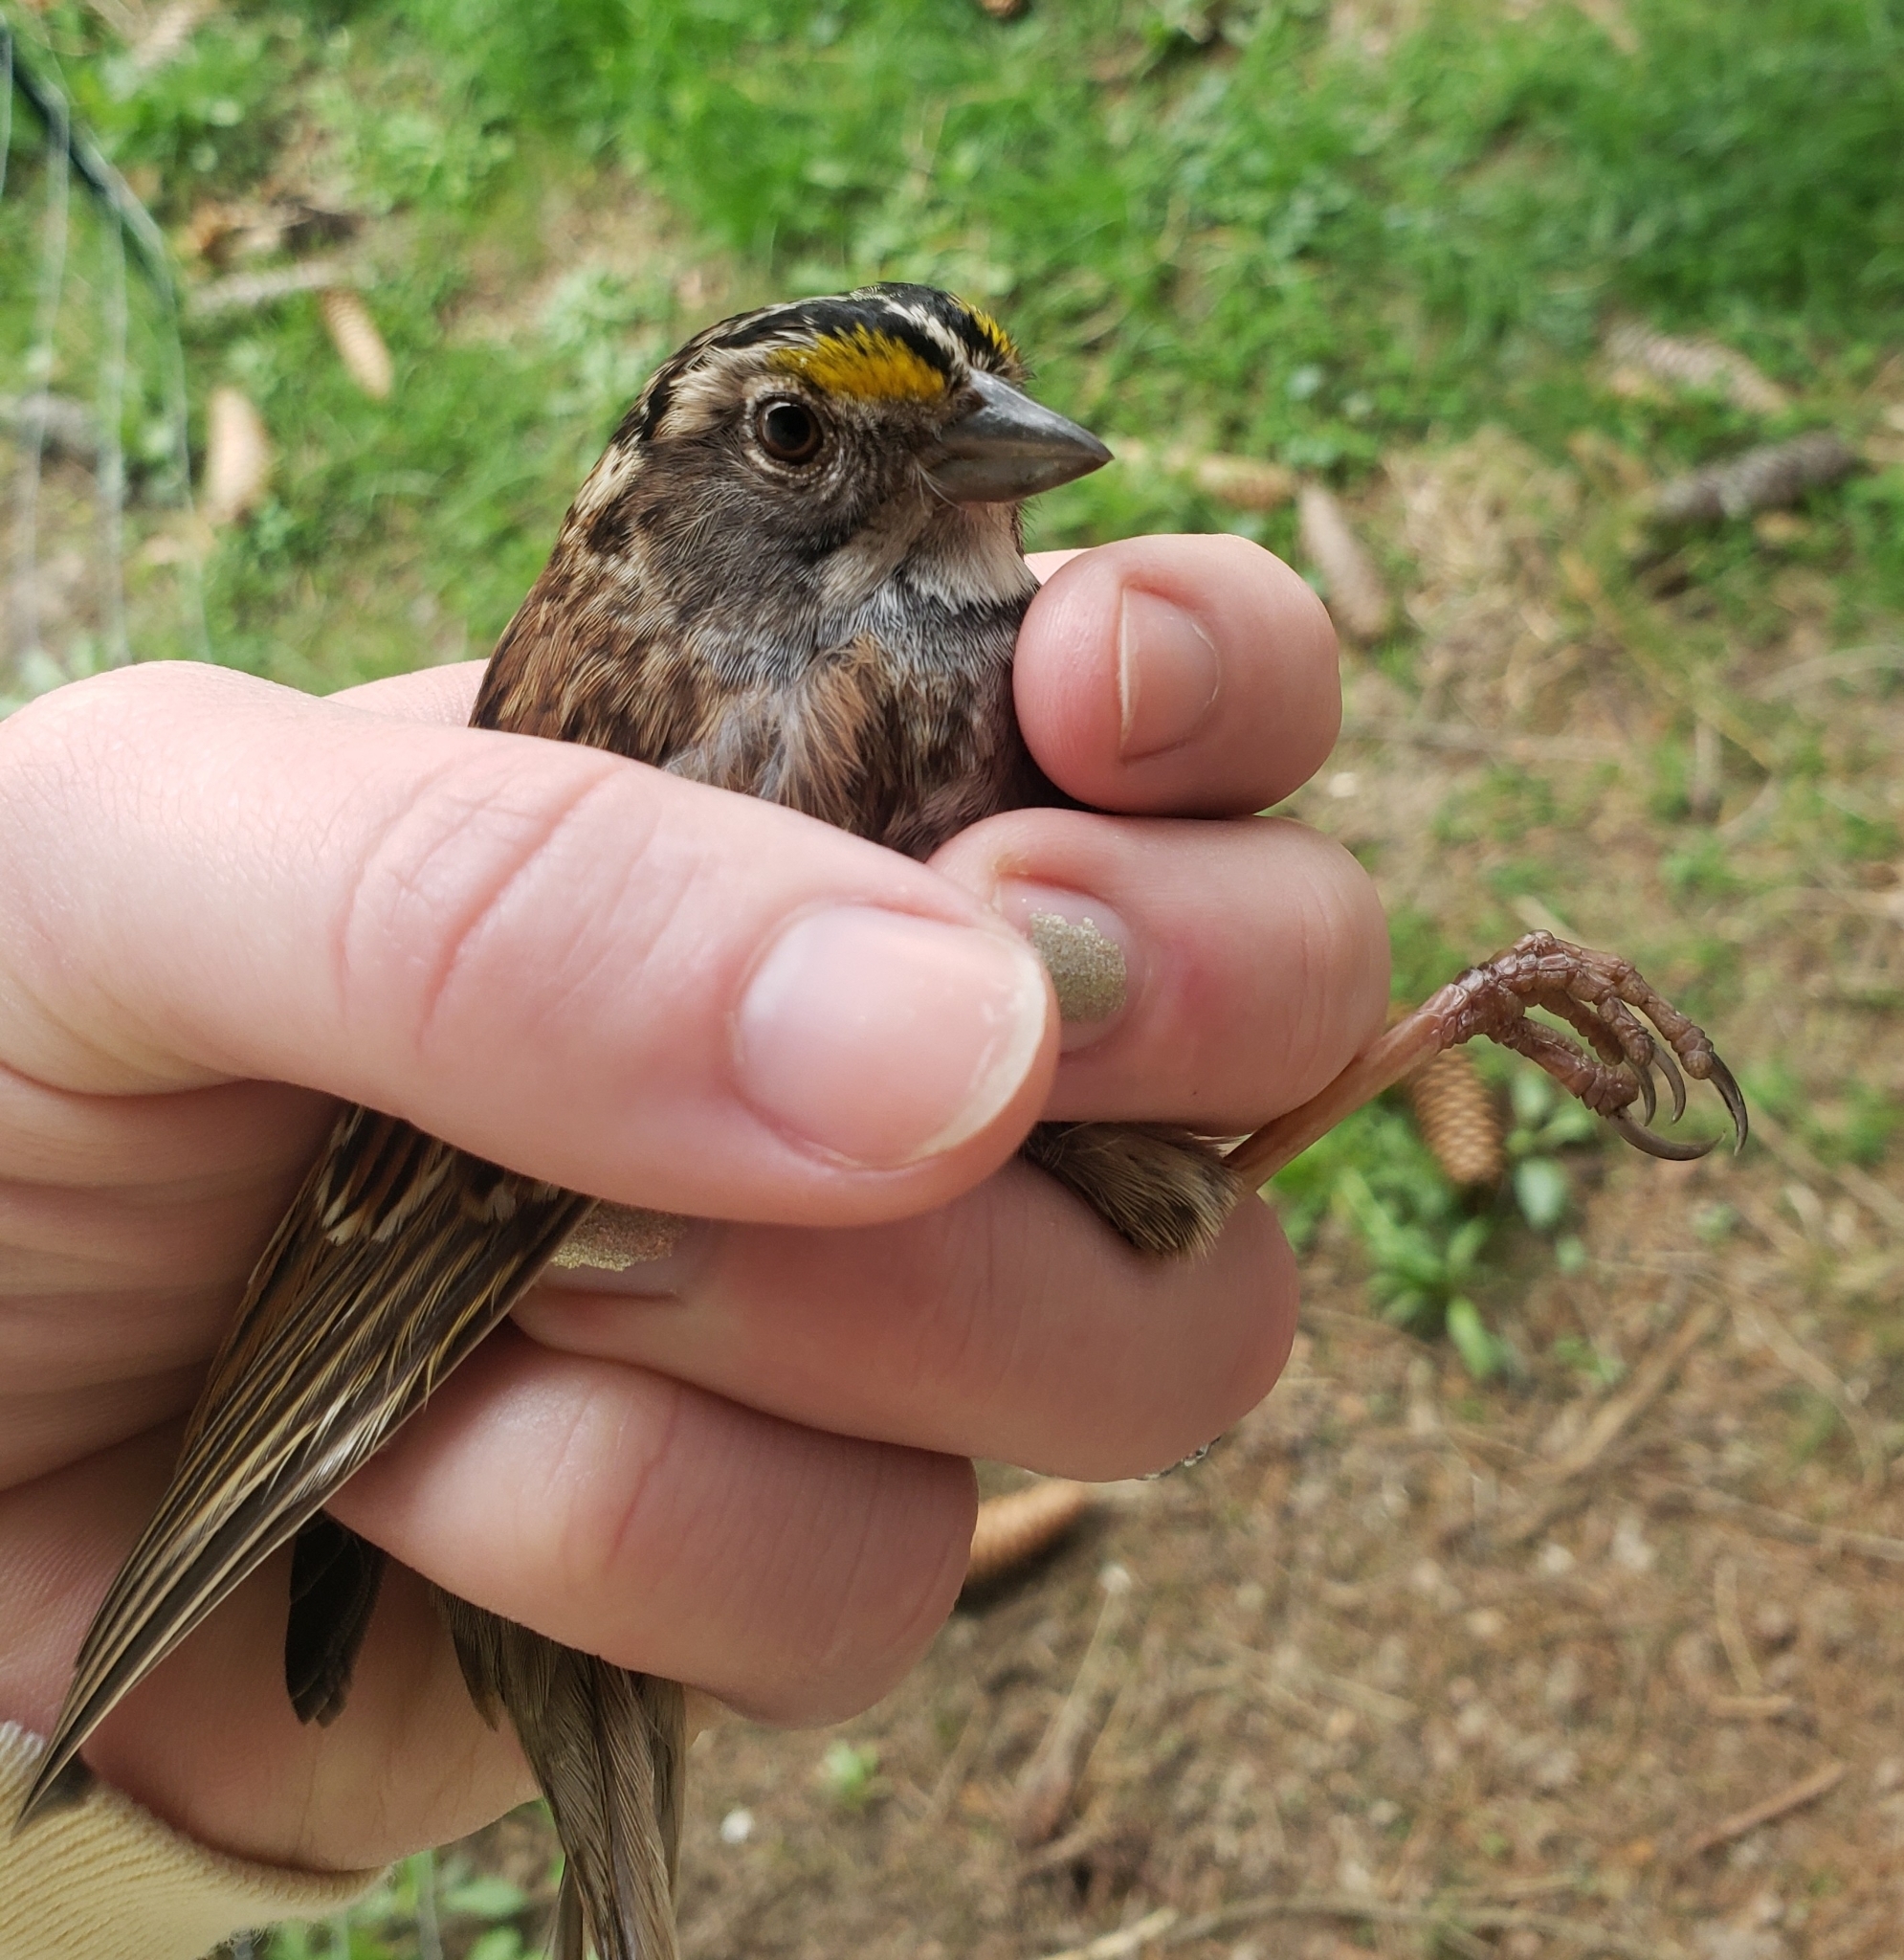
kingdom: Animalia
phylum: Chordata
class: Aves
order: Passeriformes
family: Passerellidae
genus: Zonotrichia
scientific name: Zonotrichia albicollis
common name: White-throated sparrow
